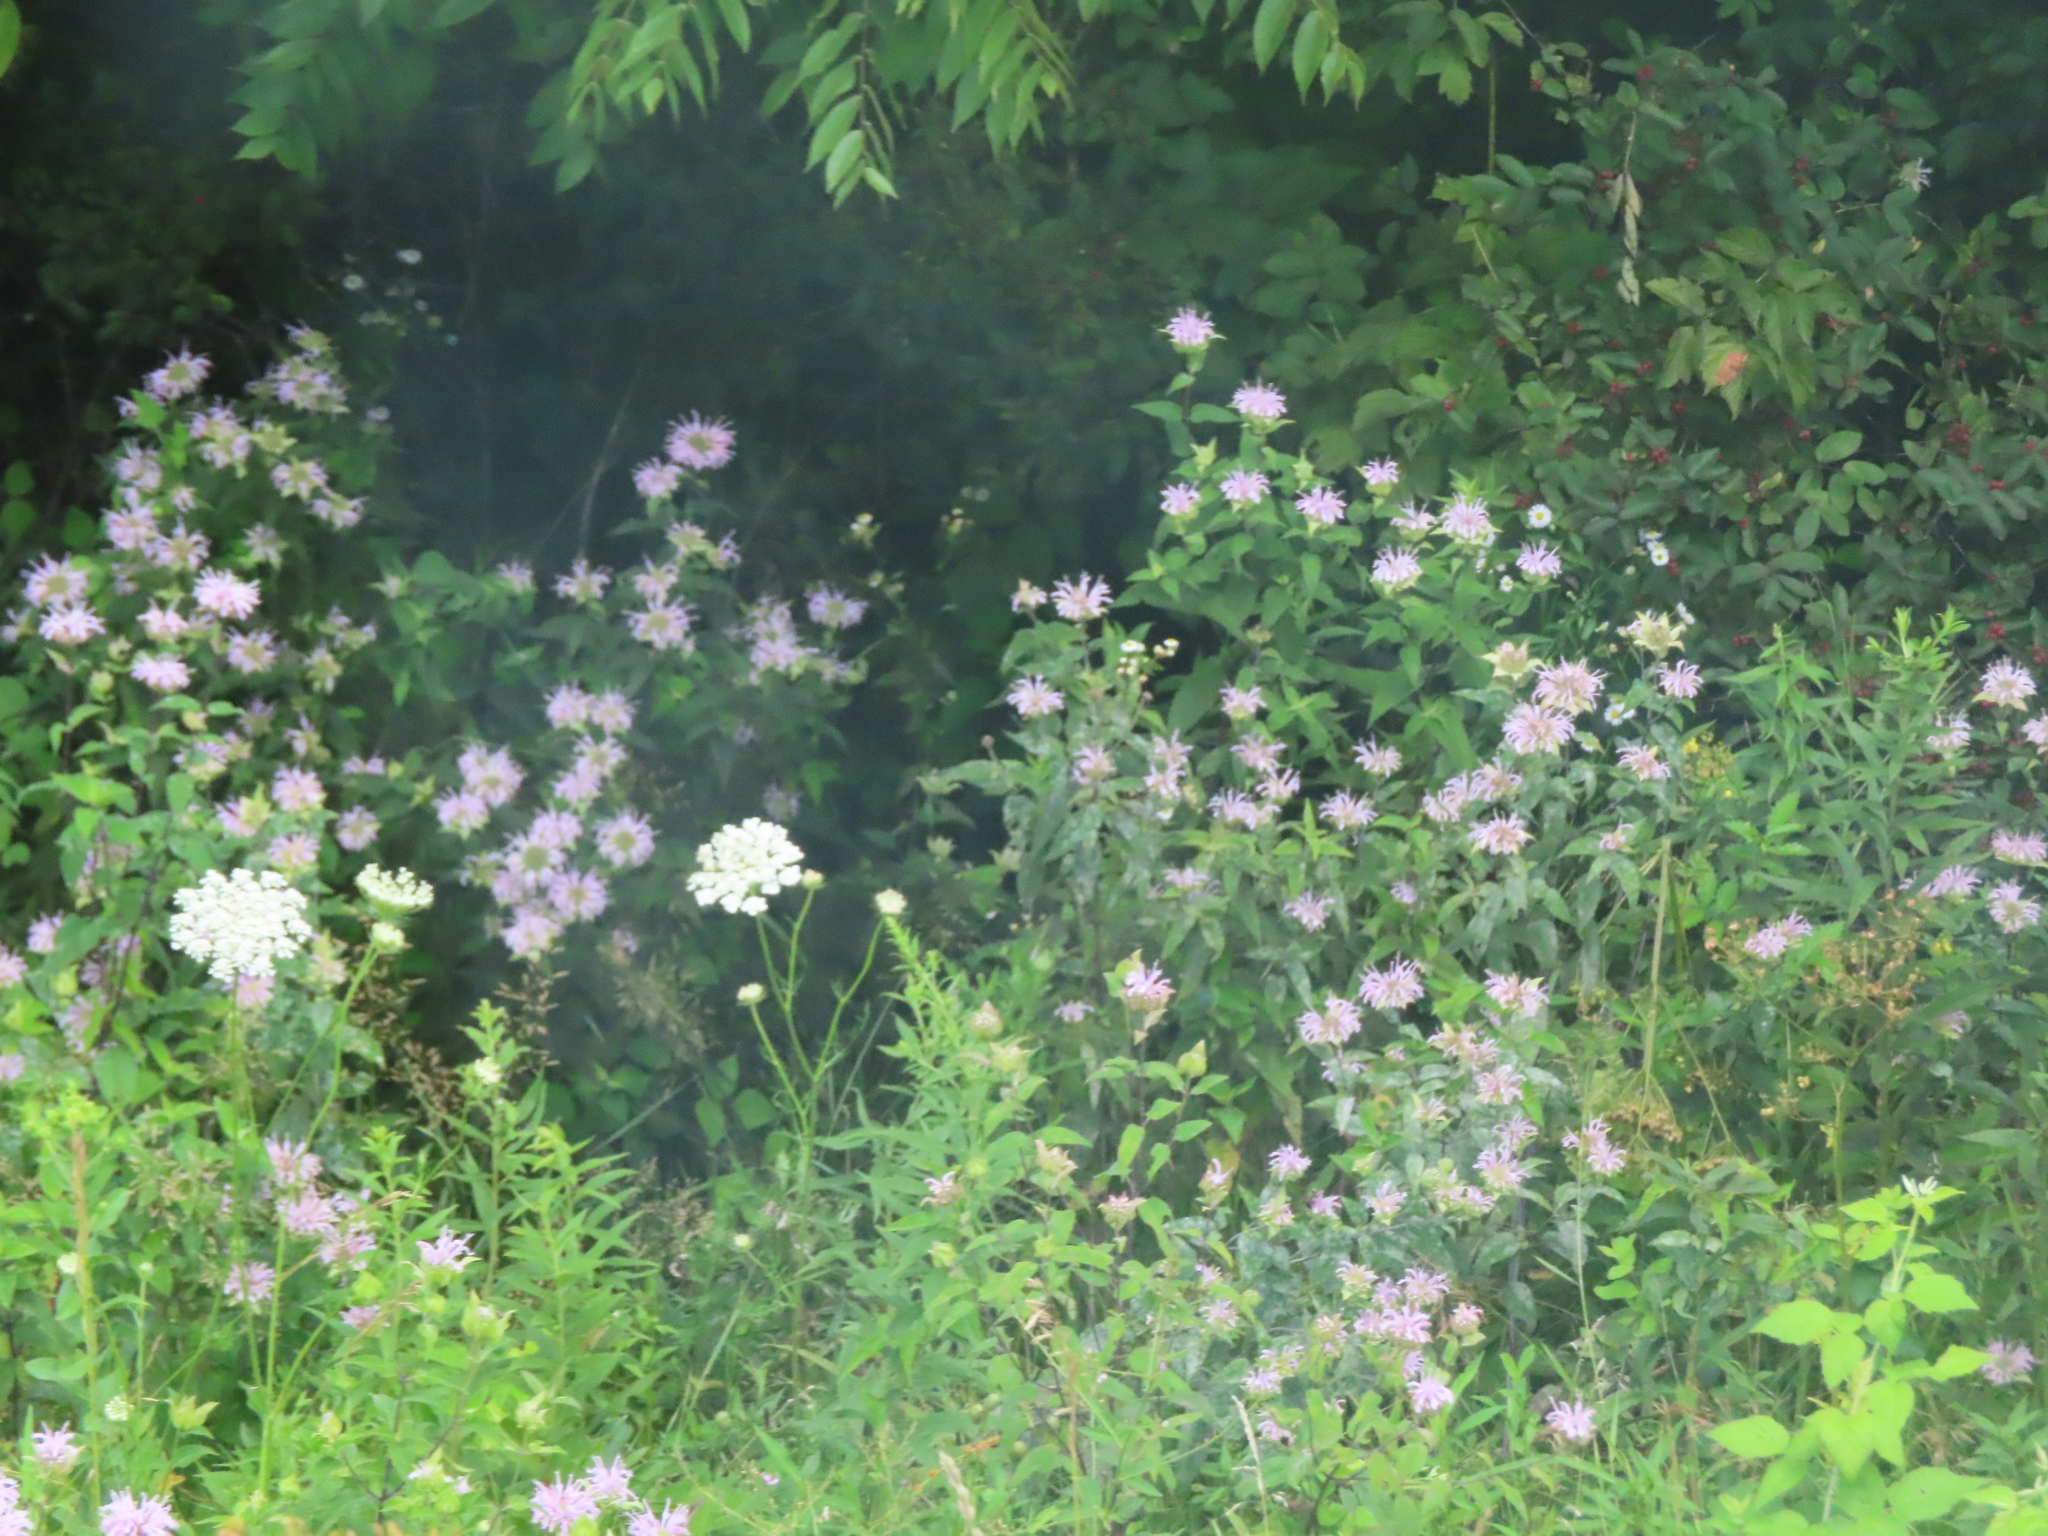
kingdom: Plantae
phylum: Tracheophyta
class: Magnoliopsida
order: Lamiales
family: Lamiaceae
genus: Monarda
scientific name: Monarda fistulosa
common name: Purple beebalm
